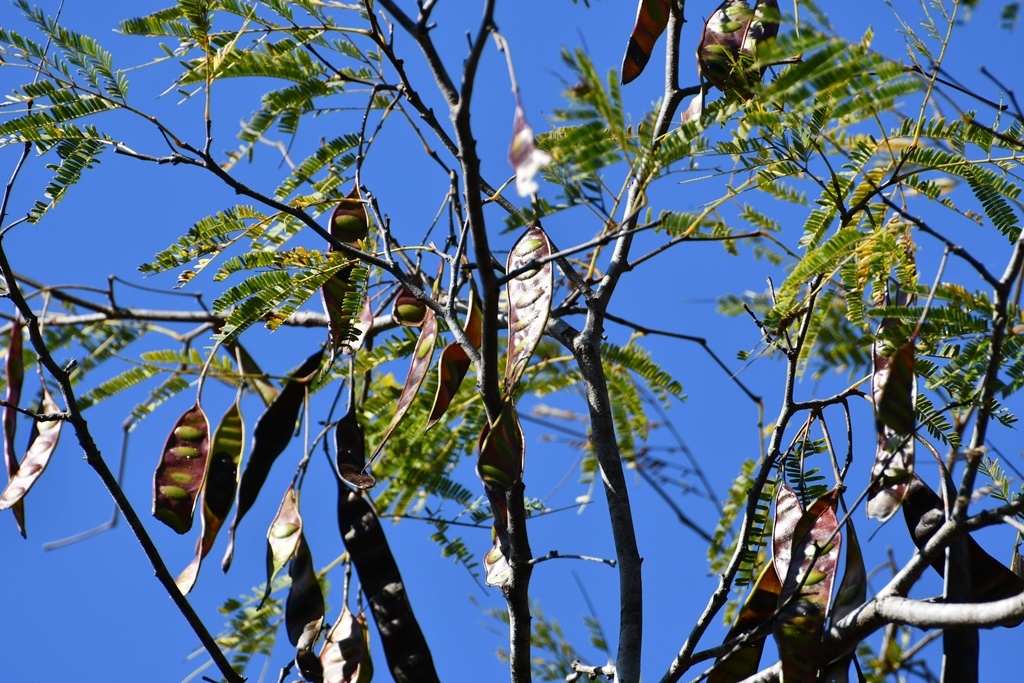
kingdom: Plantae
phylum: Tracheophyta
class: Magnoliopsida
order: Fabales
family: Fabaceae
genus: Lysiloma
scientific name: Lysiloma acapulcense
